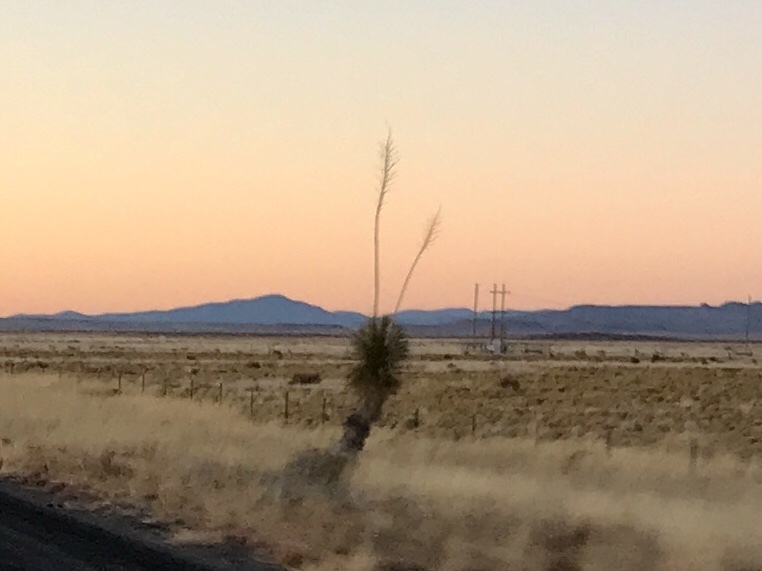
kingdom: Plantae
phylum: Tracheophyta
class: Liliopsida
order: Asparagales
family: Asparagaceae
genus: Yucca
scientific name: Yucca elata
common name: Palmella
